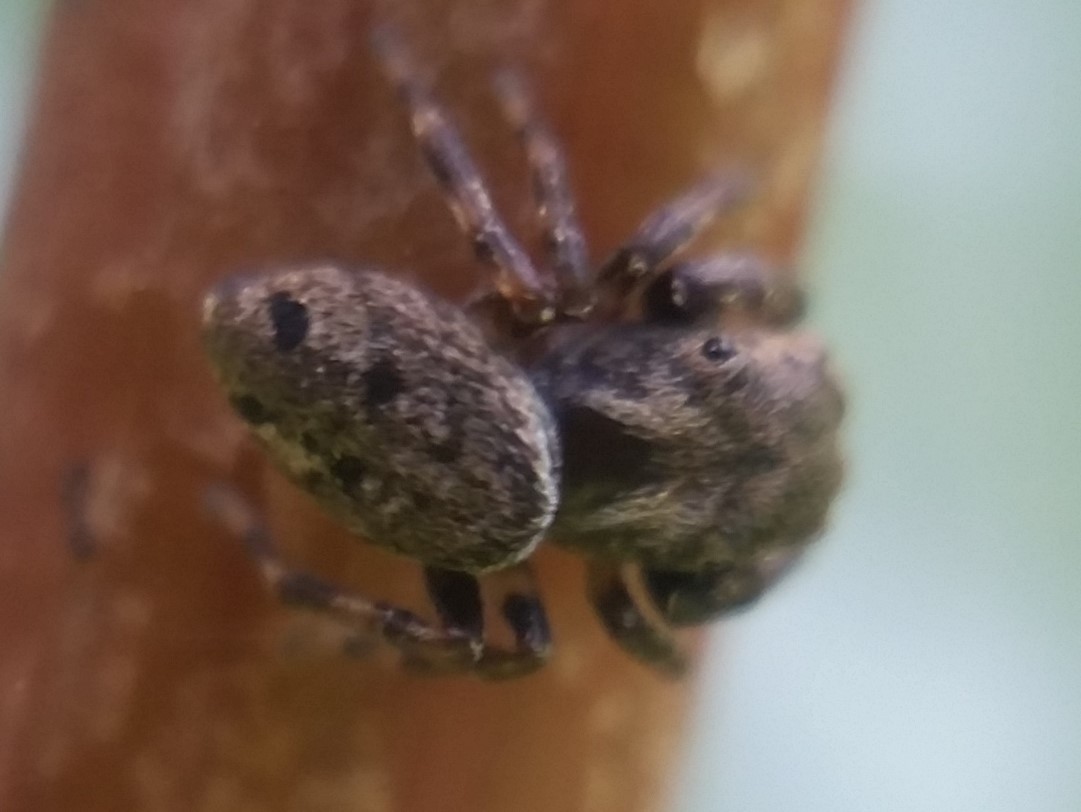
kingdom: Animalia
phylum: Arthropoda
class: Arachnida
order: Araneae
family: Salticidae
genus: Zygoballus
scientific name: Zygoballus nervosus
